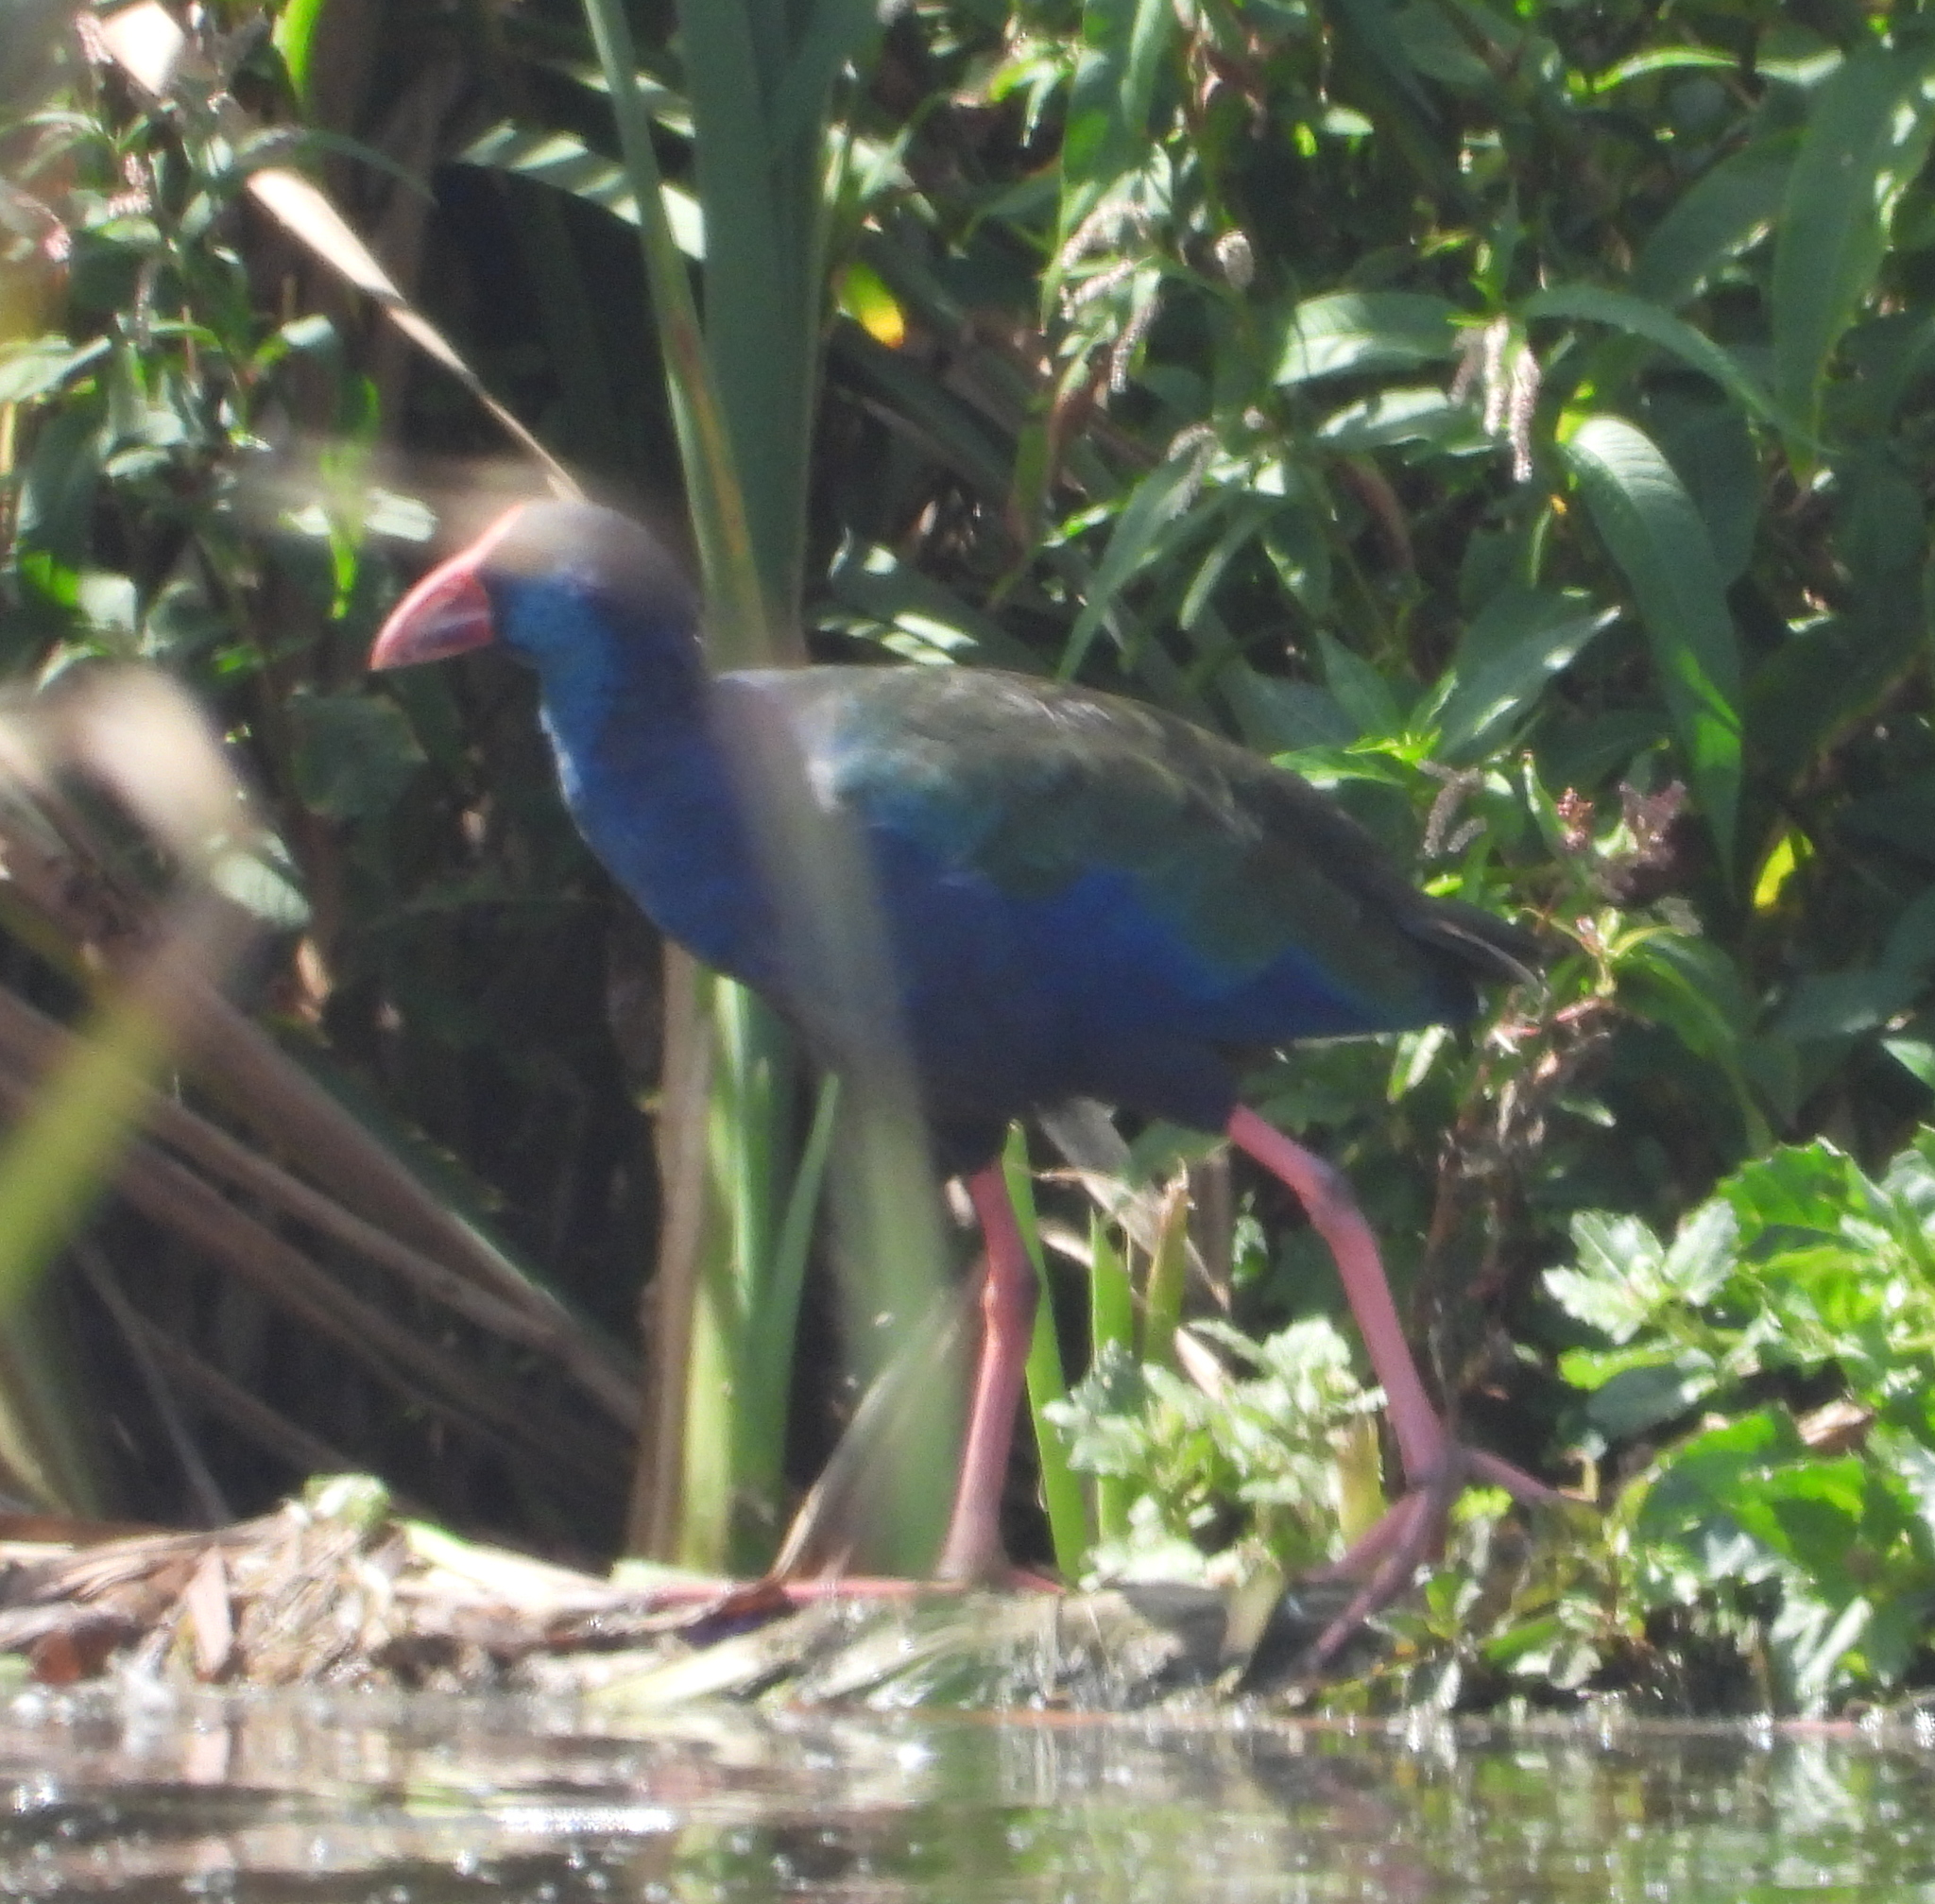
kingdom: Animalia
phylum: Chordata
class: Aves
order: Gruiformes
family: Rallidae
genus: Porphyrio
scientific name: Porphyrio porphyrio
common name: Purple swamphen
